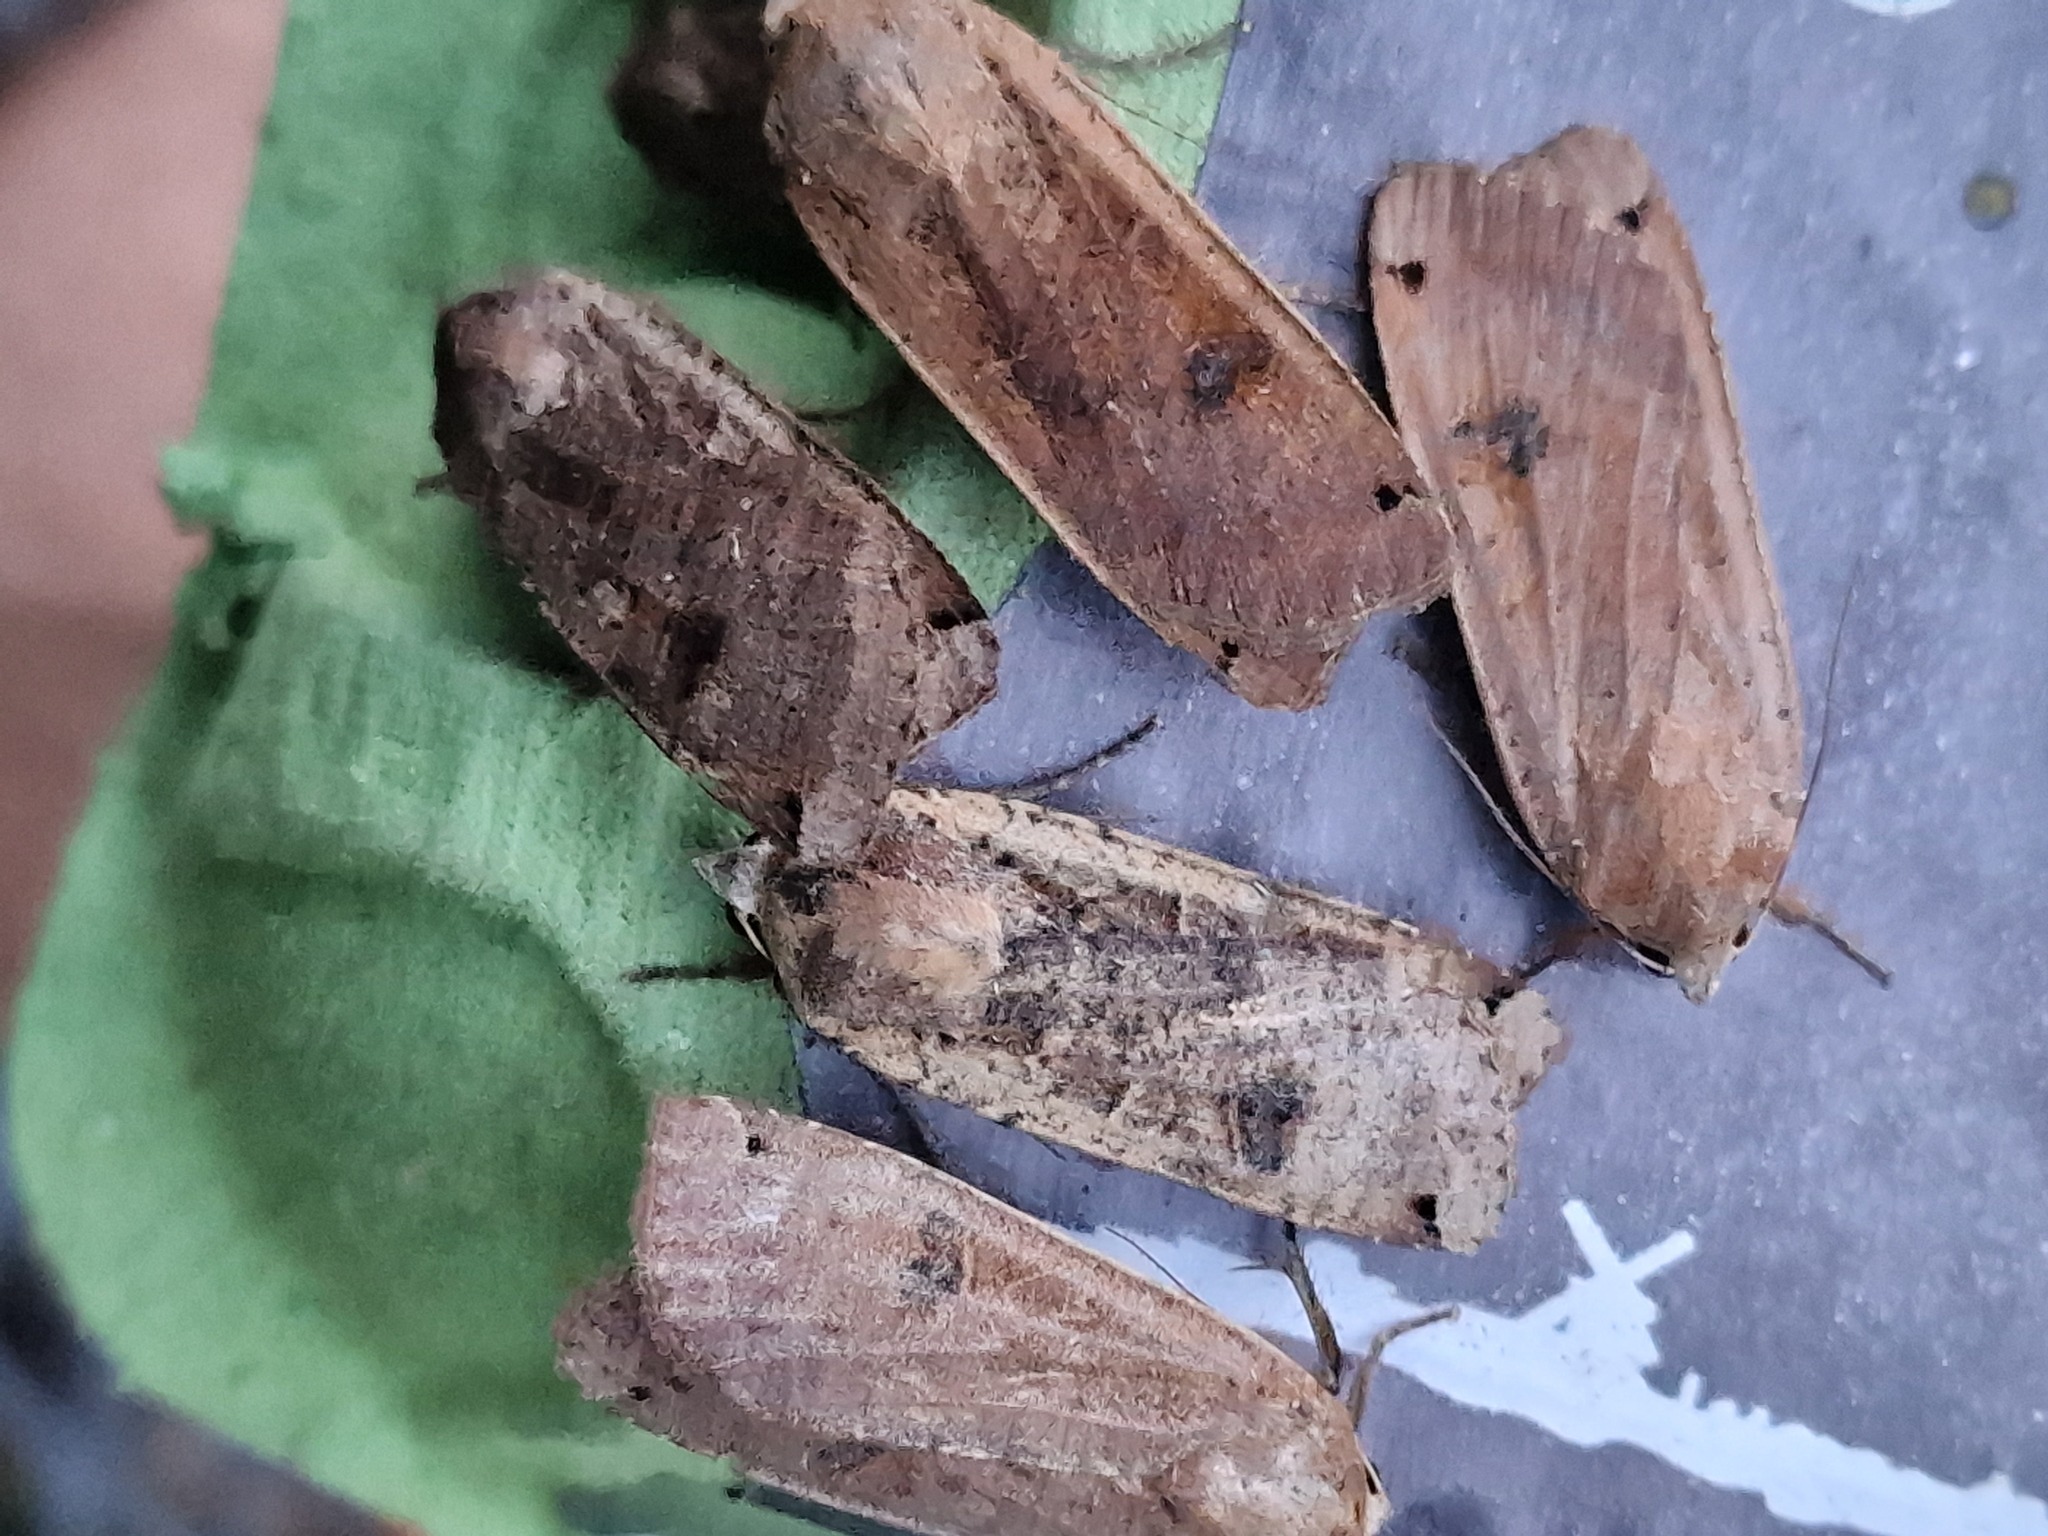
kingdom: Animalia
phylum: Arthropoda
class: Insecta
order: Lepidoptera
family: Noctuidae
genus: Noctua
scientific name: Noctua pronuba
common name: Large yellow underwing
